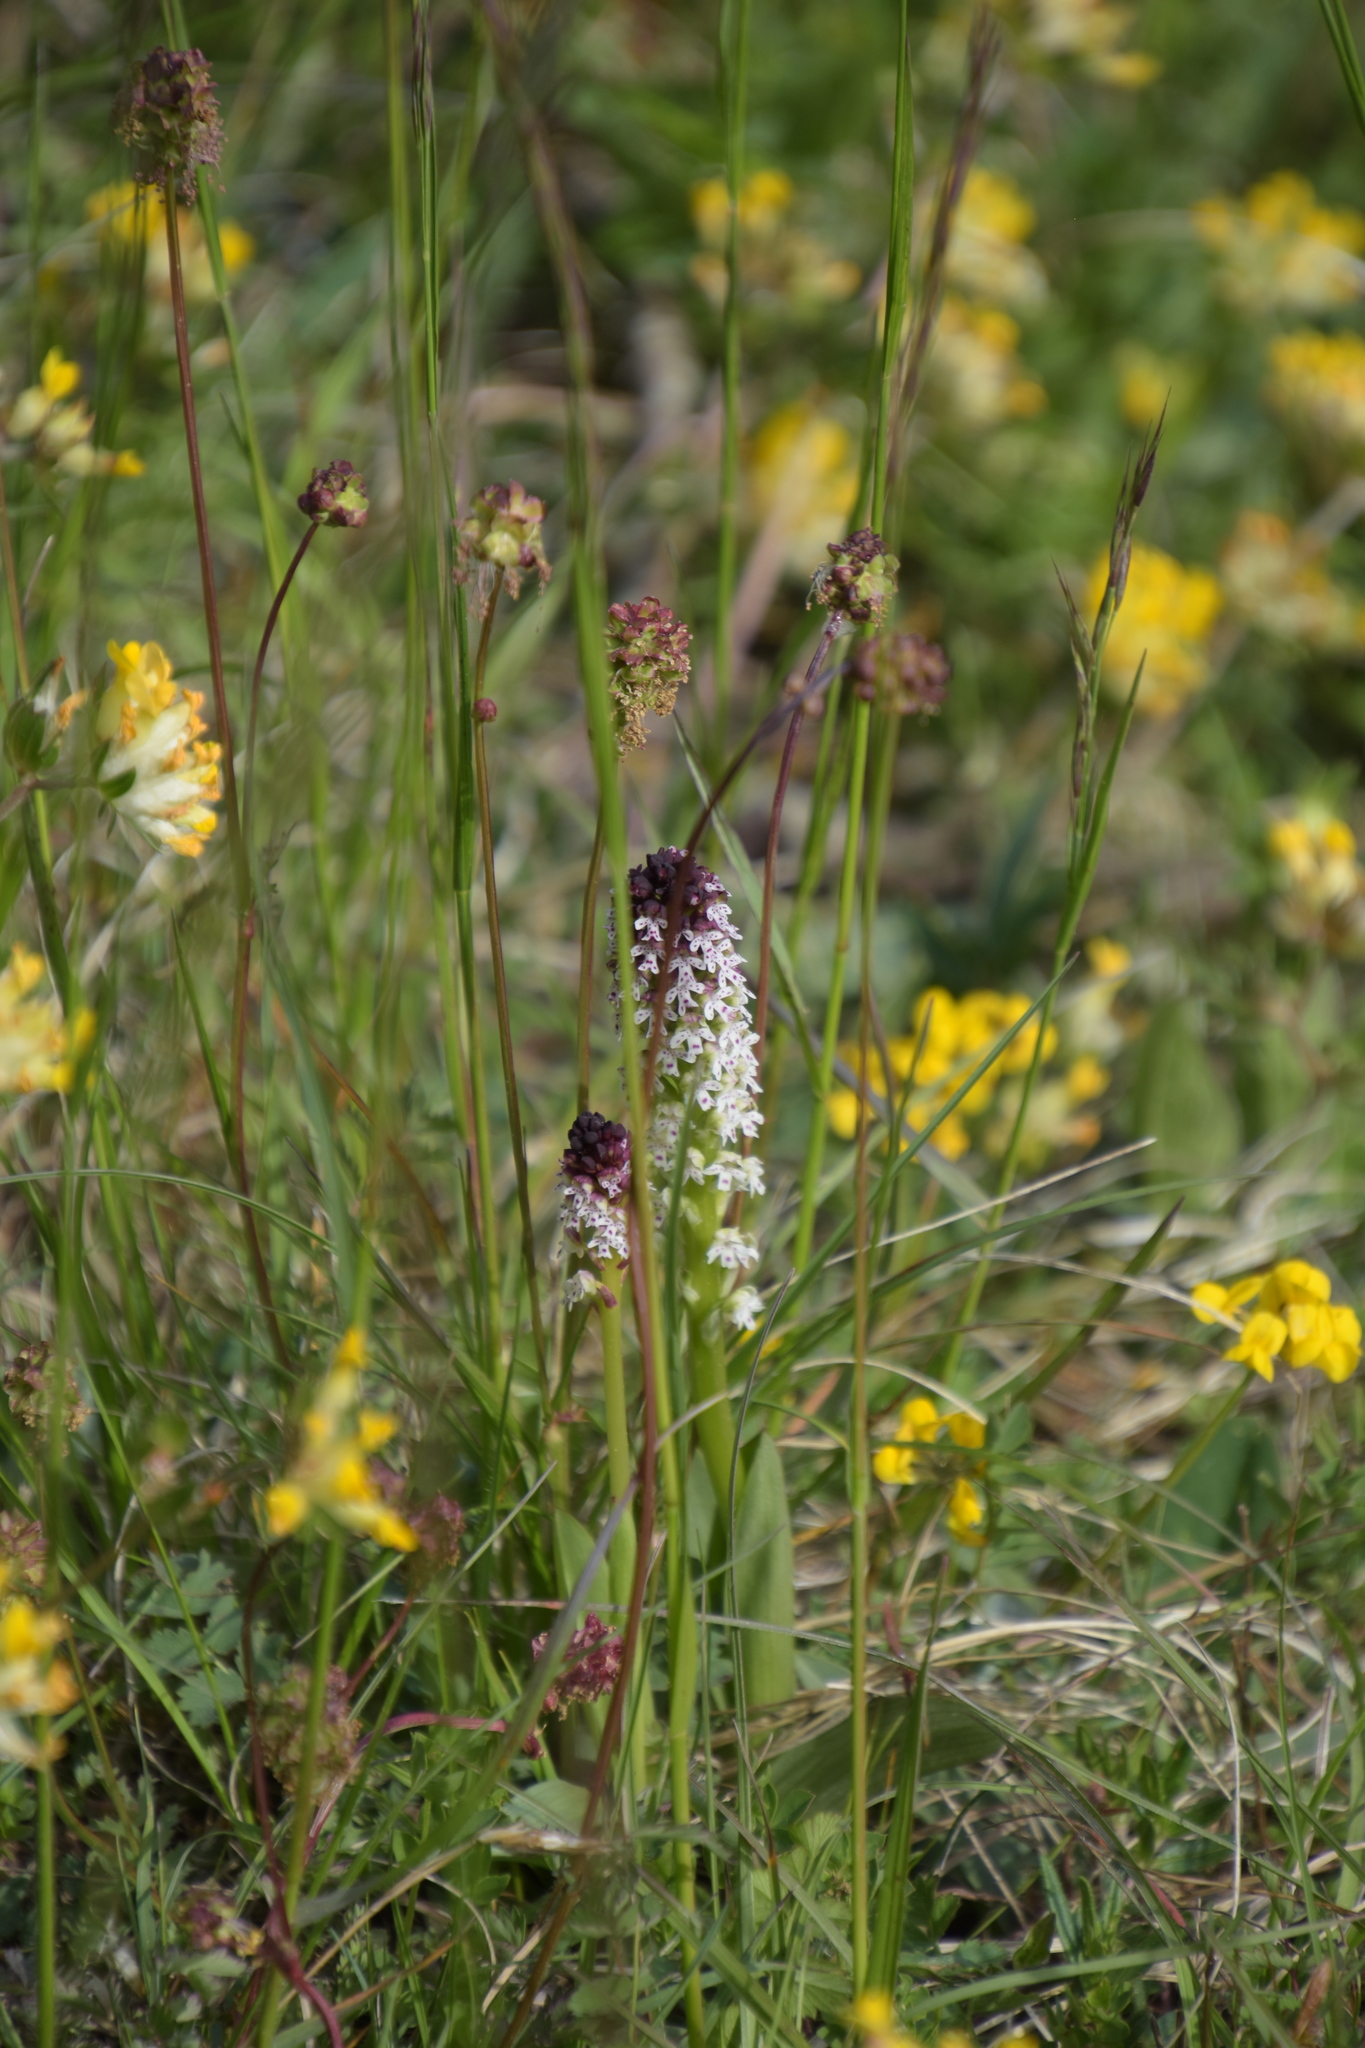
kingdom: Plantae
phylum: Tracheophyta
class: Liliopsida
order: Asparagales
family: Orchidaceae
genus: Neotinea
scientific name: Neotinea ustulata
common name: Burnt orchid
